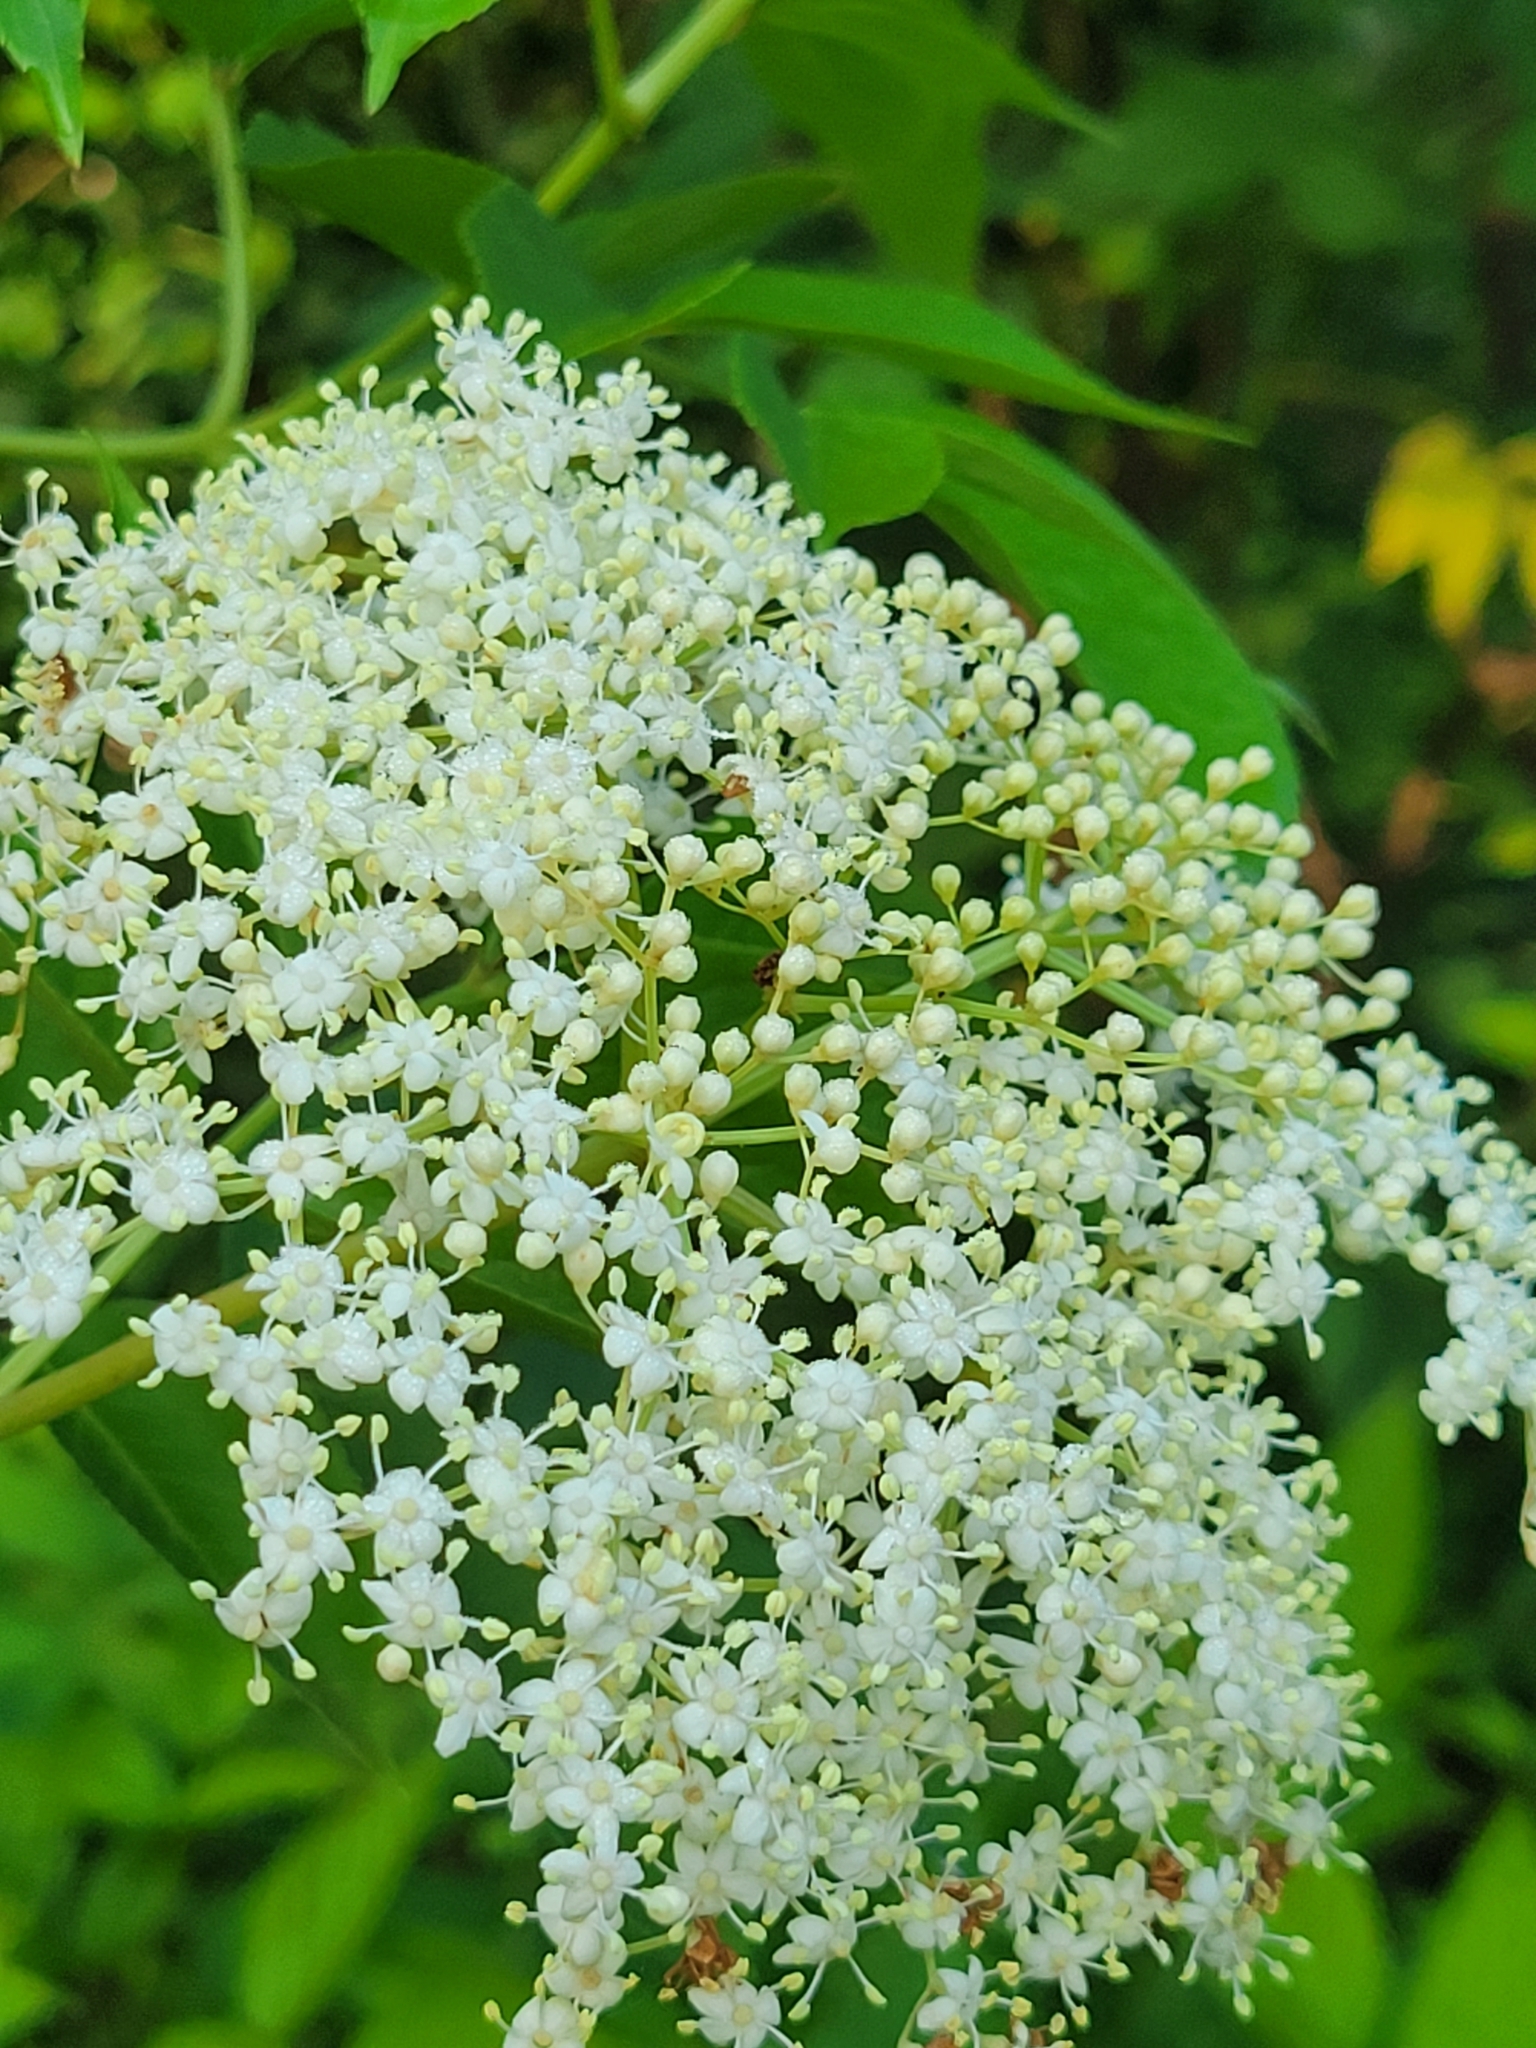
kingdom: Plantae
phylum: Tracheophyta
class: Magnoliopsida
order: Dipsacales
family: Viburnaceae
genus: Sambucus
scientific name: Sambucus canadensis
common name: American elder
